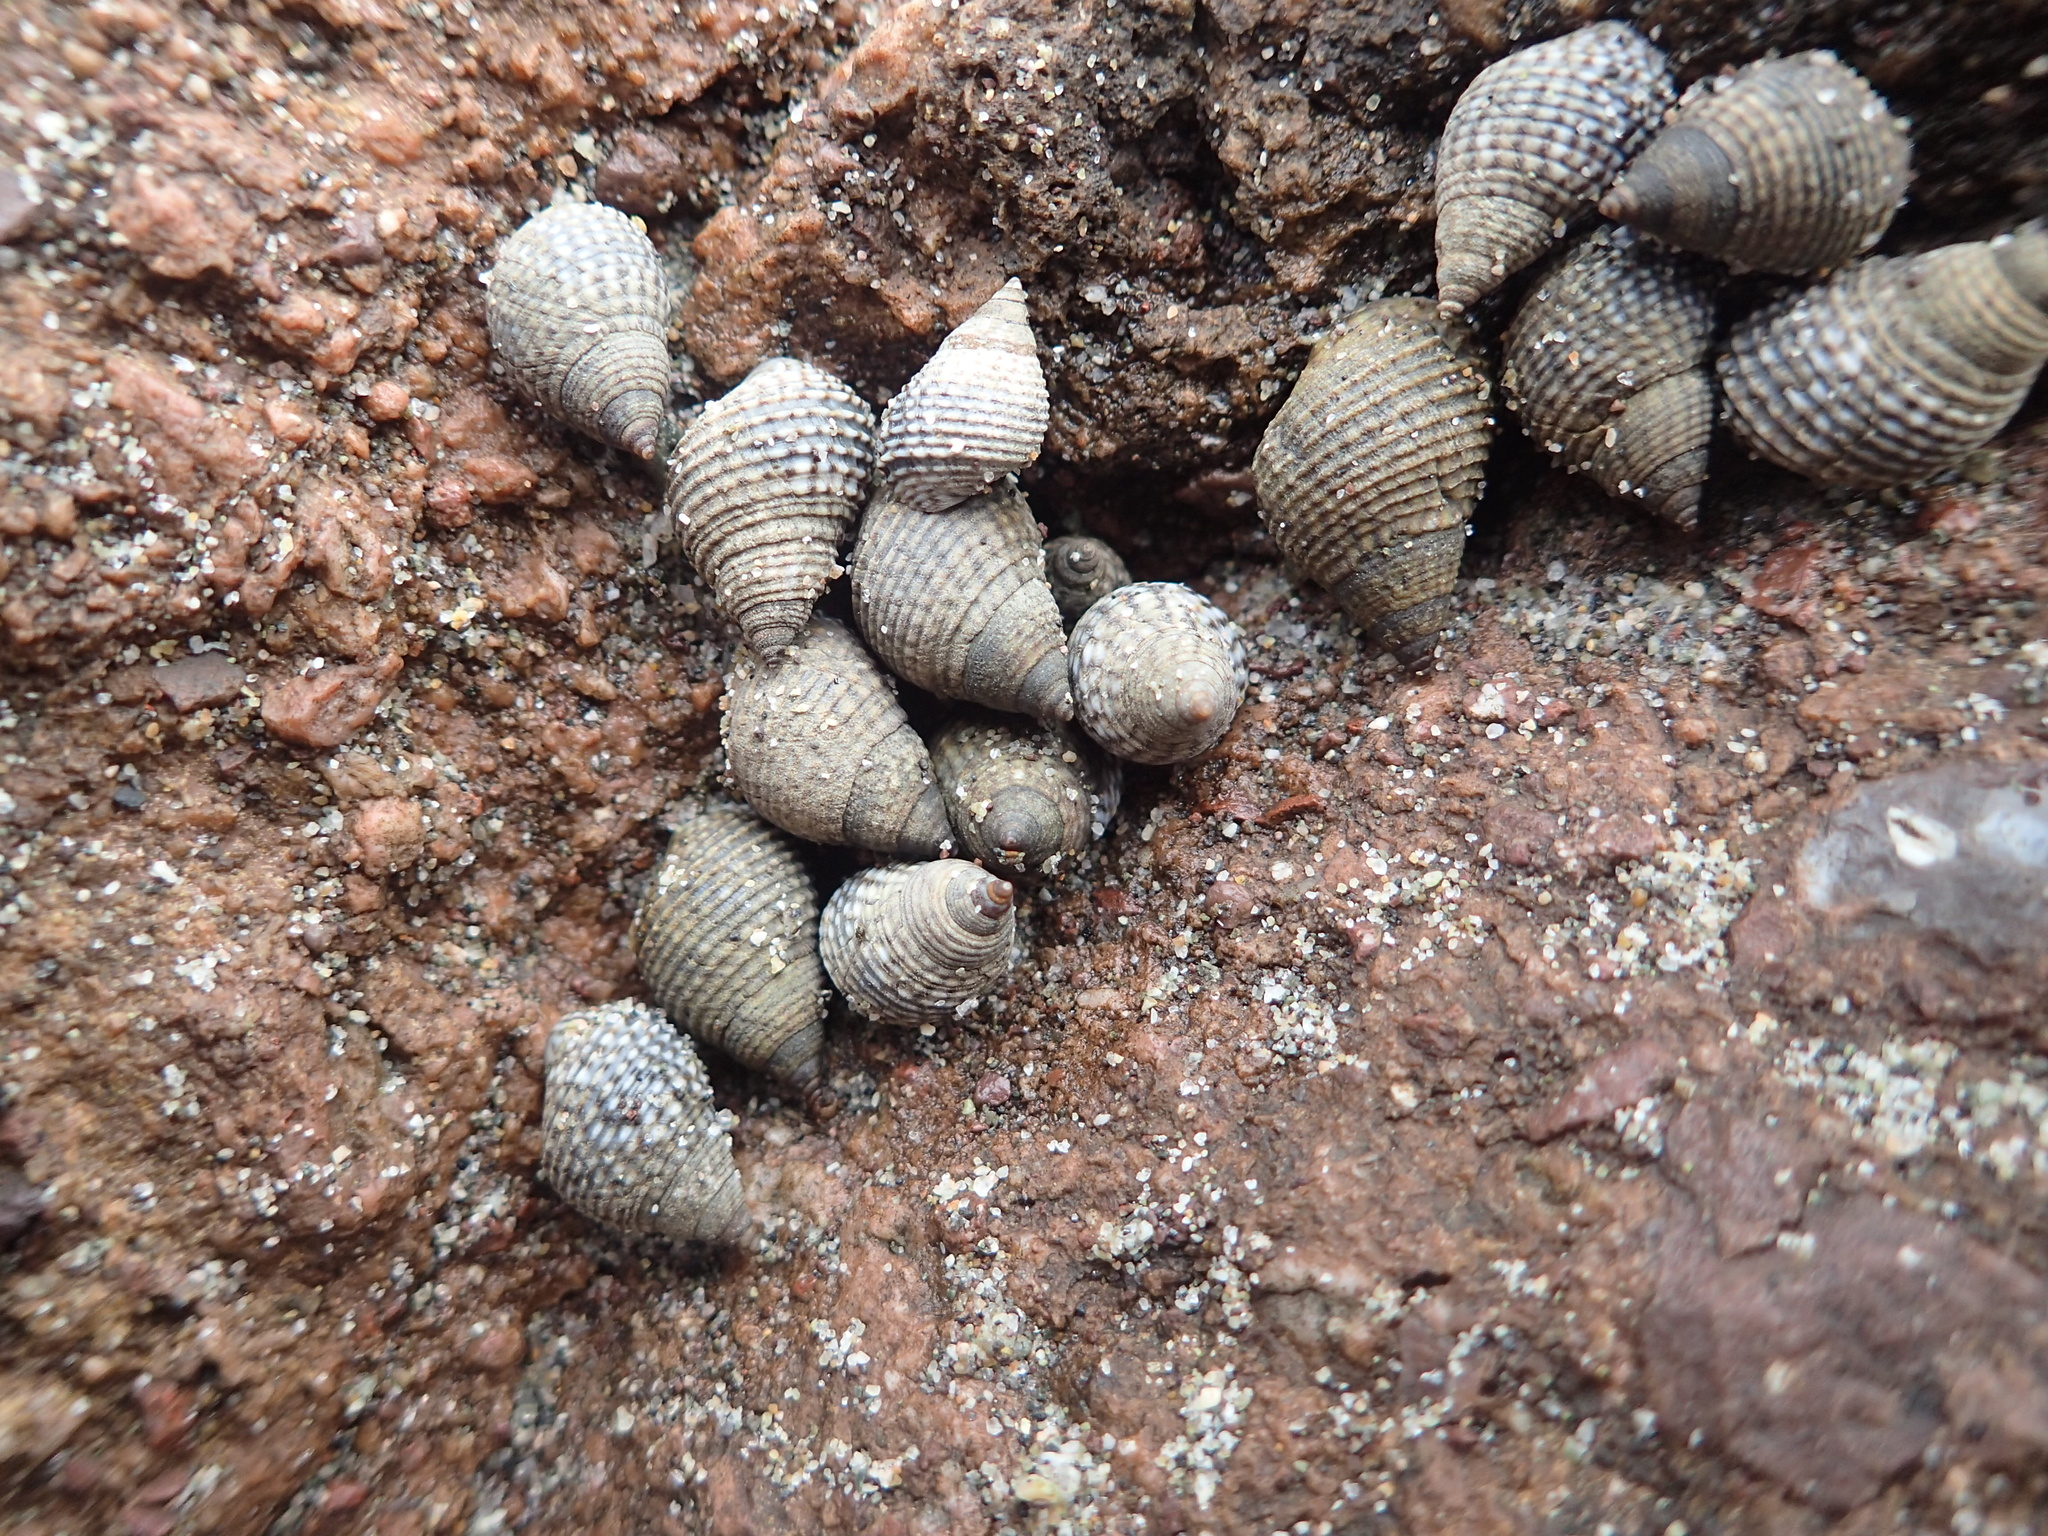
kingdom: Animalia
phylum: Mollusca
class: Gastropoda
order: Littorinimorpha
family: Littorinidae
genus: Echinolittorina
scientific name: Echinolittorina aspera
